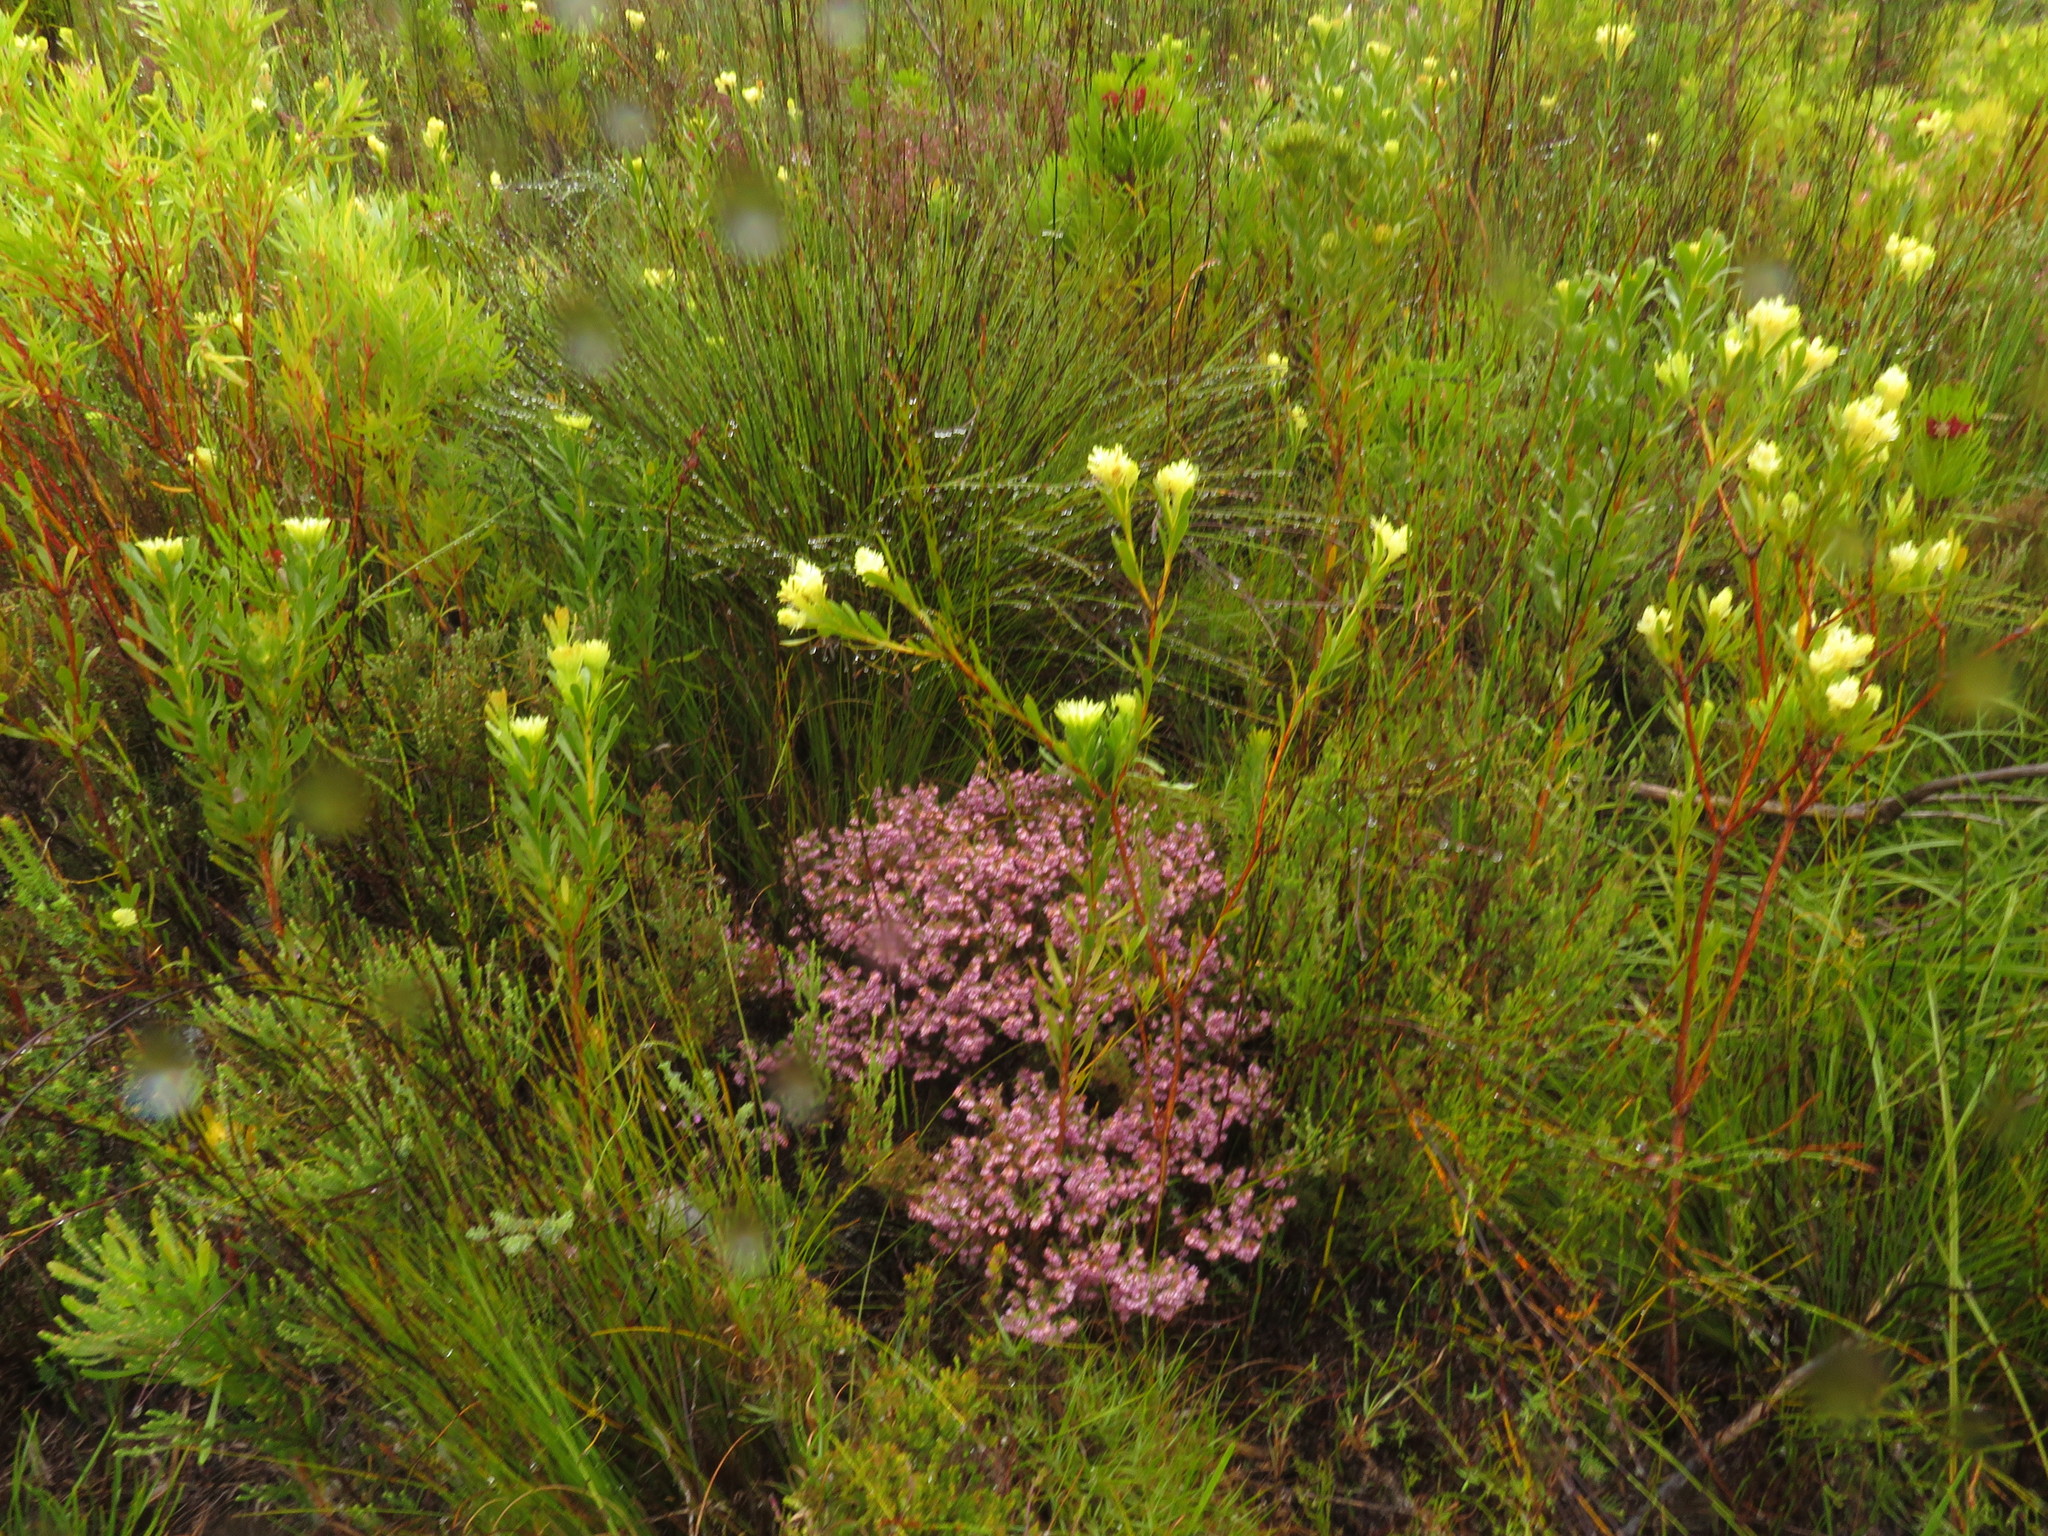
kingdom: Plantae
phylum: Tracheophyta
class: Magnoliopsida
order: Ericales
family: Ericaceae
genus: Erica
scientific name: Erica labialis
